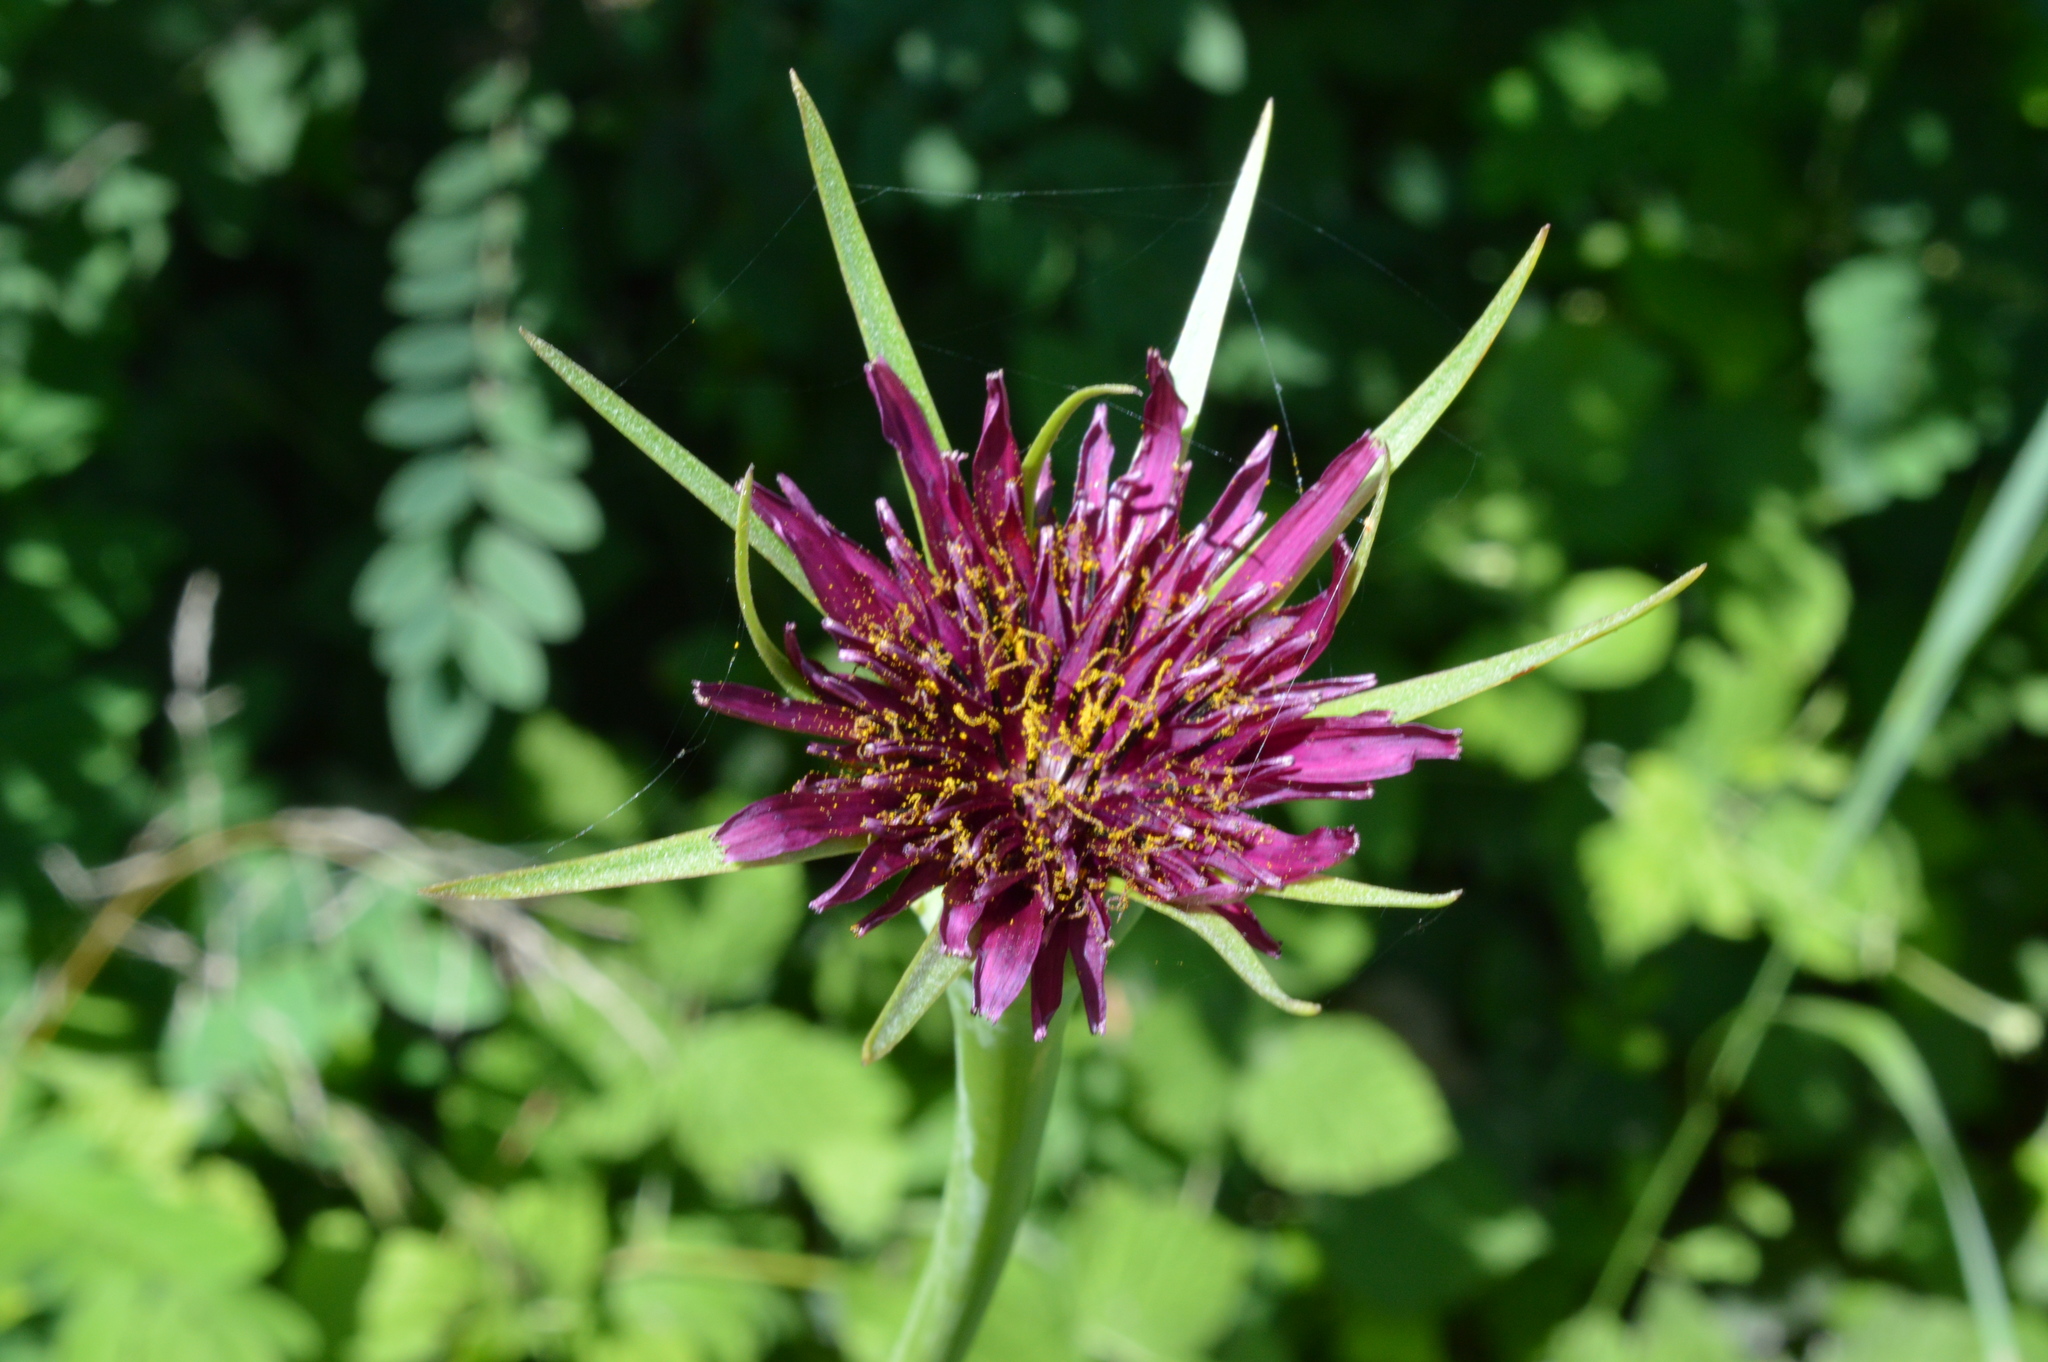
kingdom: Plantae
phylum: Tracheophyta
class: Magnoliopsida
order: Asterales
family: Asteraceae
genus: Tragopogon
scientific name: Tragopogon porrifolius
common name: Salsify
